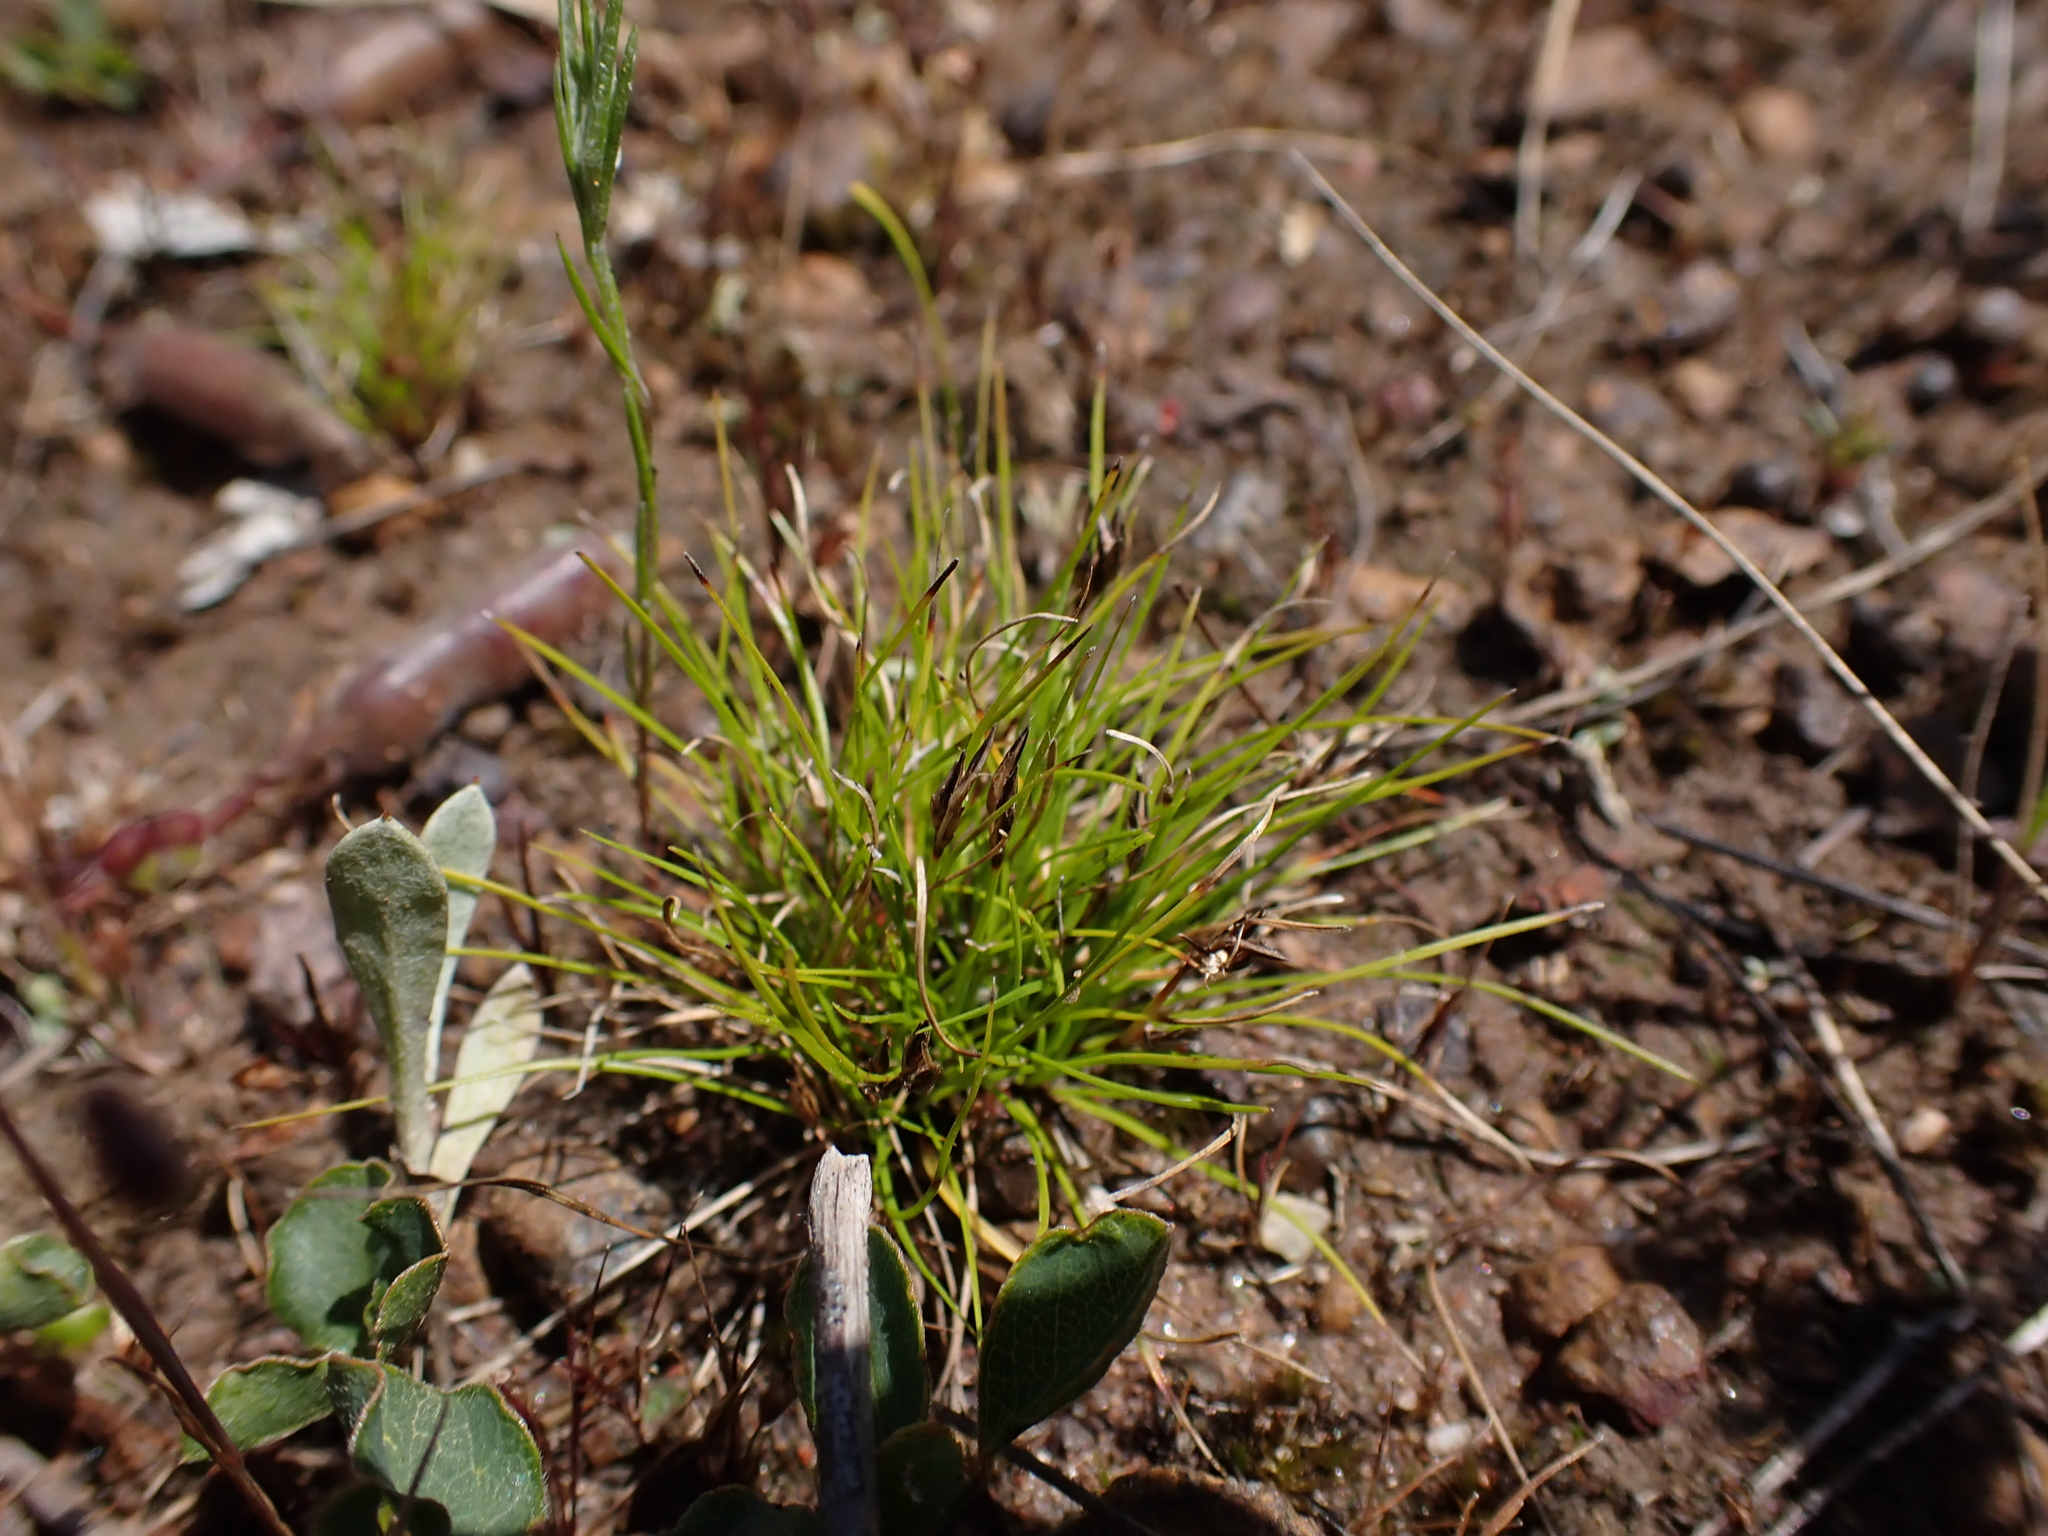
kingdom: Plantae
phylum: Tracheophyta
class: Liliopsida
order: Poales
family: Cyperaceae
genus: Schoenus
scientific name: Schoenus apogon
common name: Smooth bogrush
